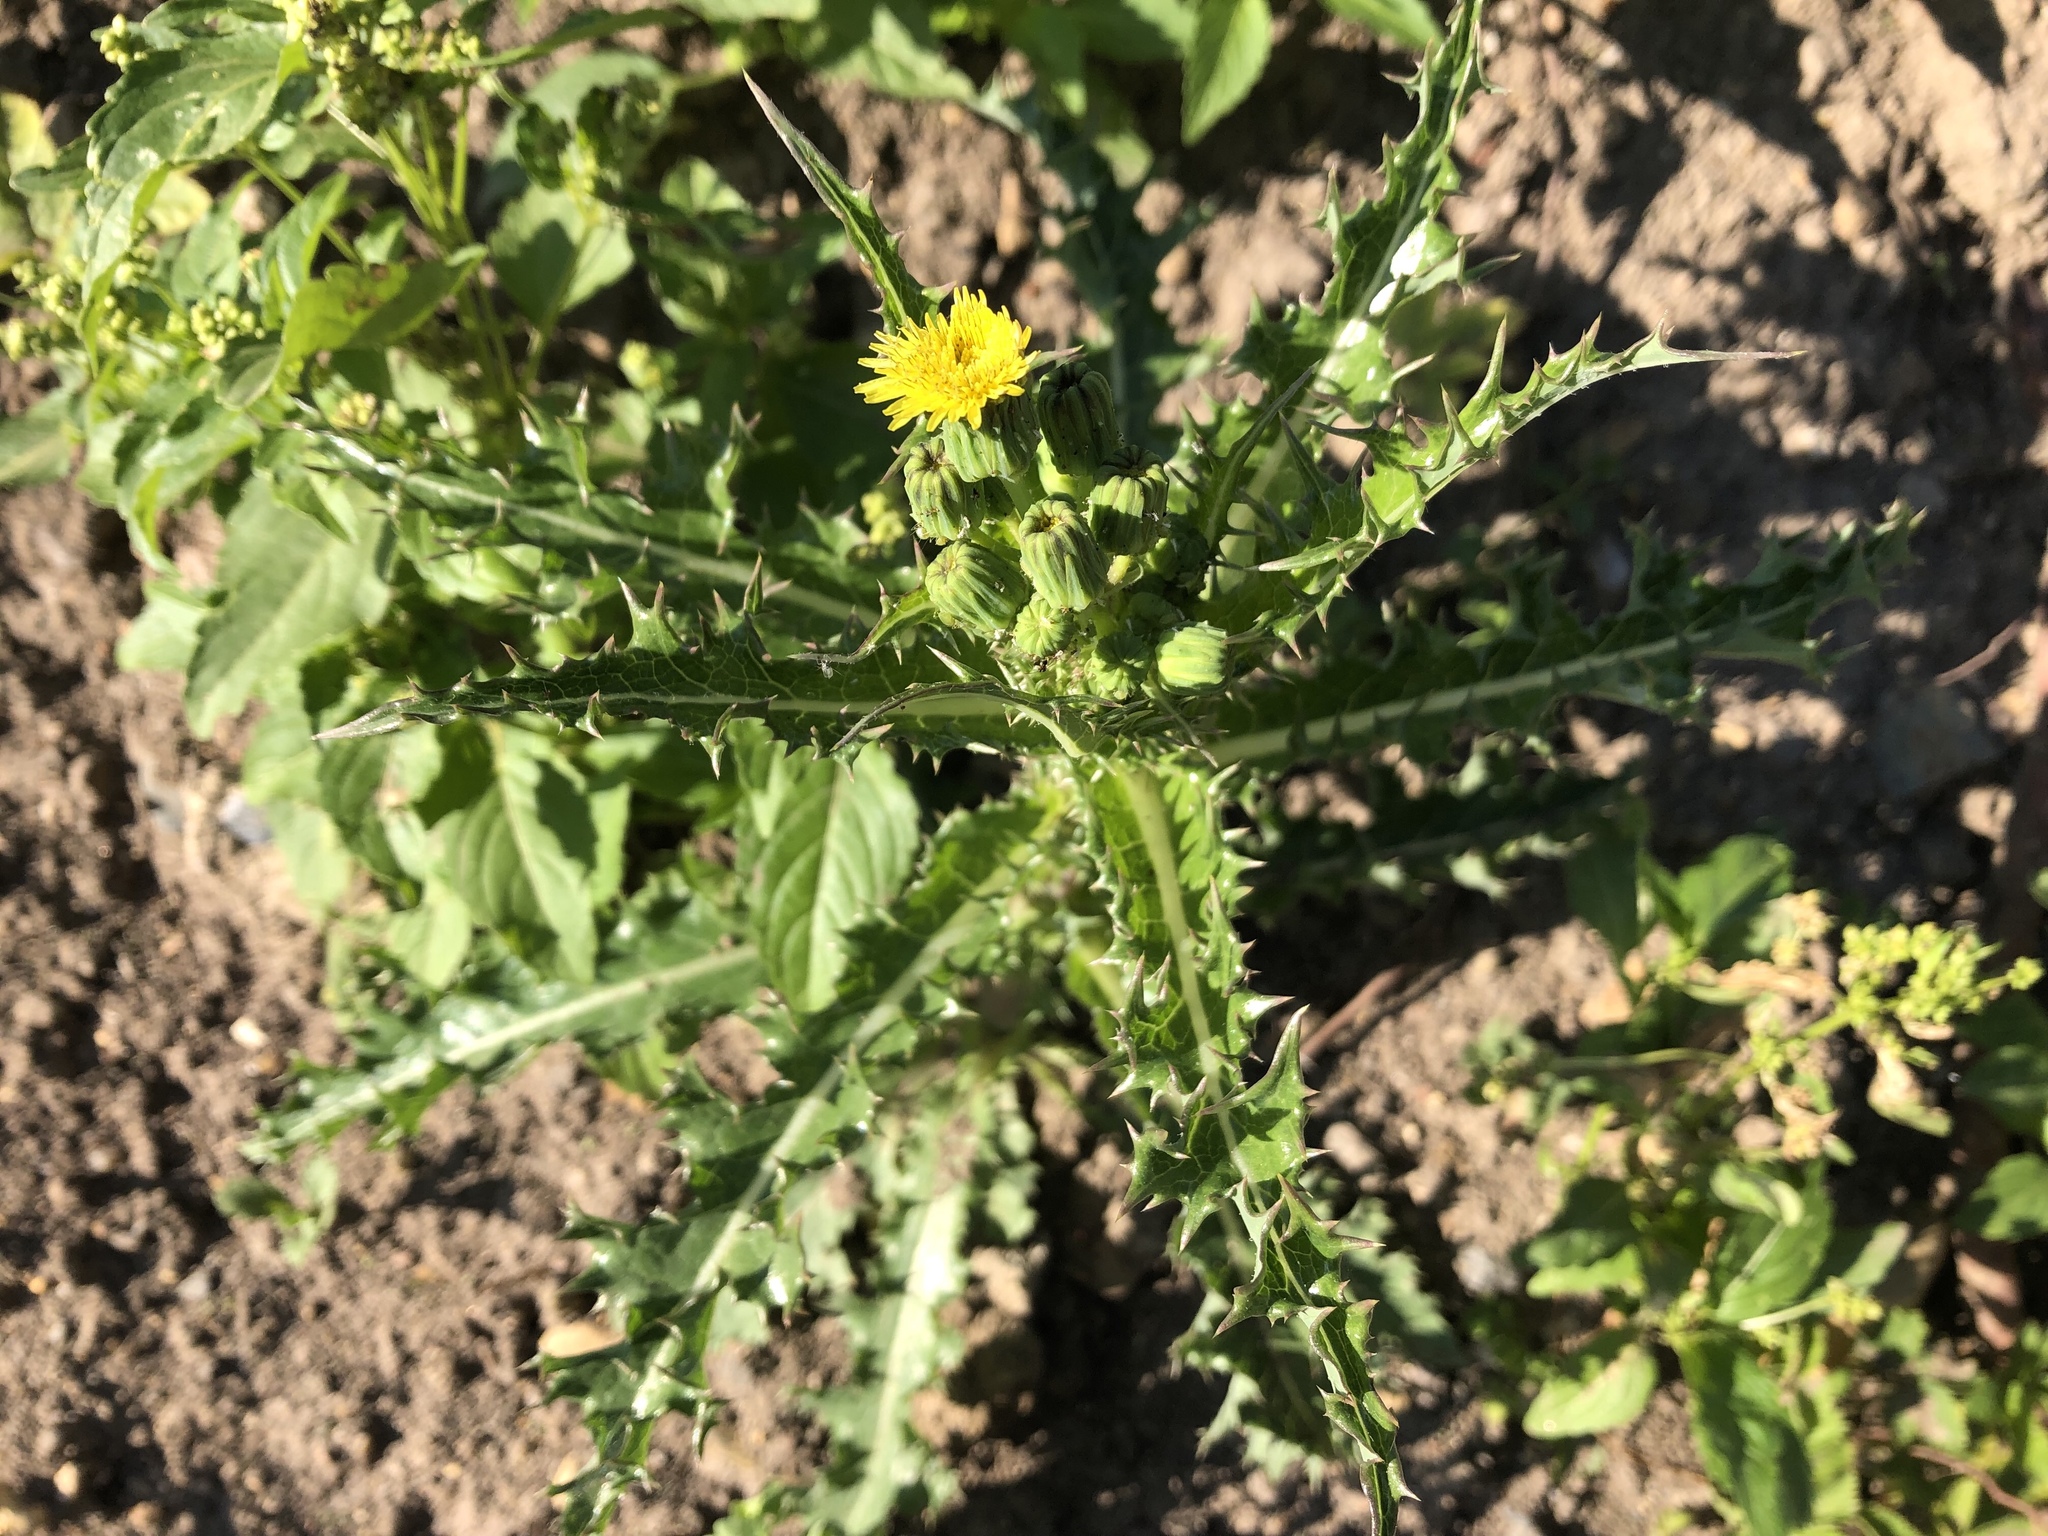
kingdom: Plantae
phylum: Tracheophyta
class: Magnoliopsida
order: Asterales
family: Asteraceae
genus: Sonchus
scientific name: Sonchus asper
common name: Prickly sow-thistle
